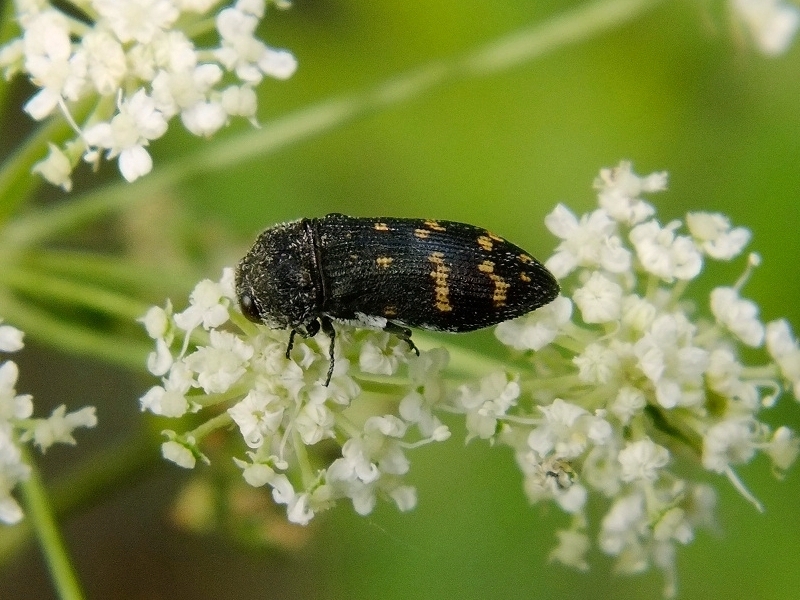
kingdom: Animalia
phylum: Arthropoda
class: Insecta
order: Coleoptera
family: Buprestidae
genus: Acmaeoderella
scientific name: Acmaeoderella flavofasciata
